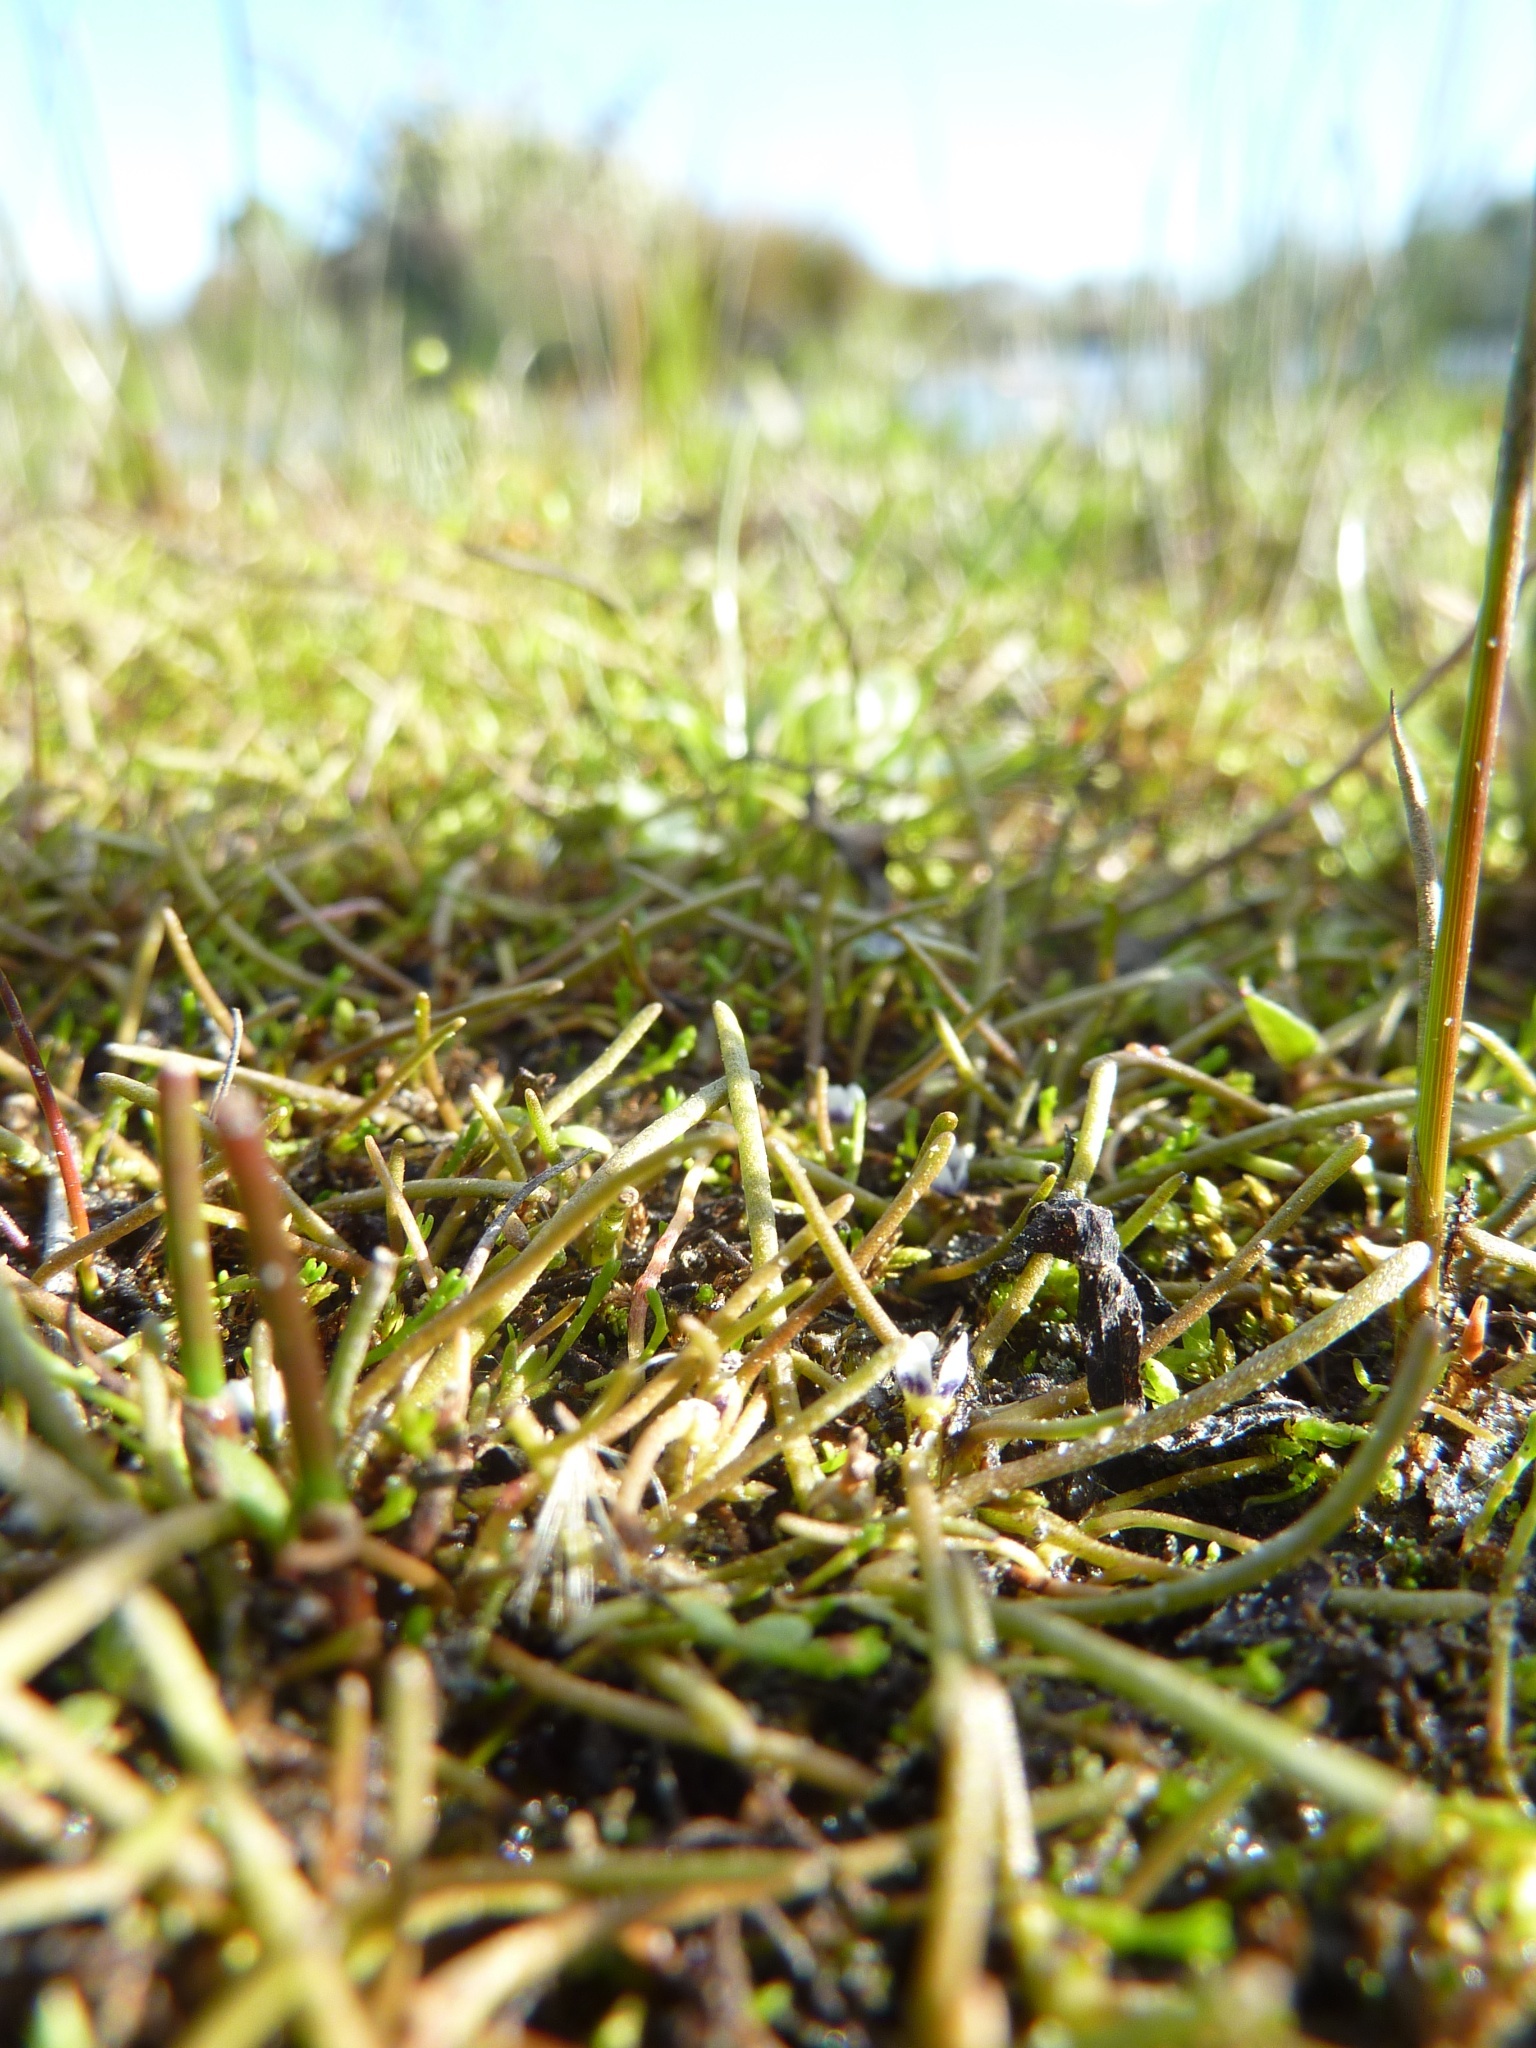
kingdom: Plantae
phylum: Tracheophyta
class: Magnoliopsida
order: Lamiales
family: Scrophulariaceae
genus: Limosella
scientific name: Limosella australis
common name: Welsh mudwort
